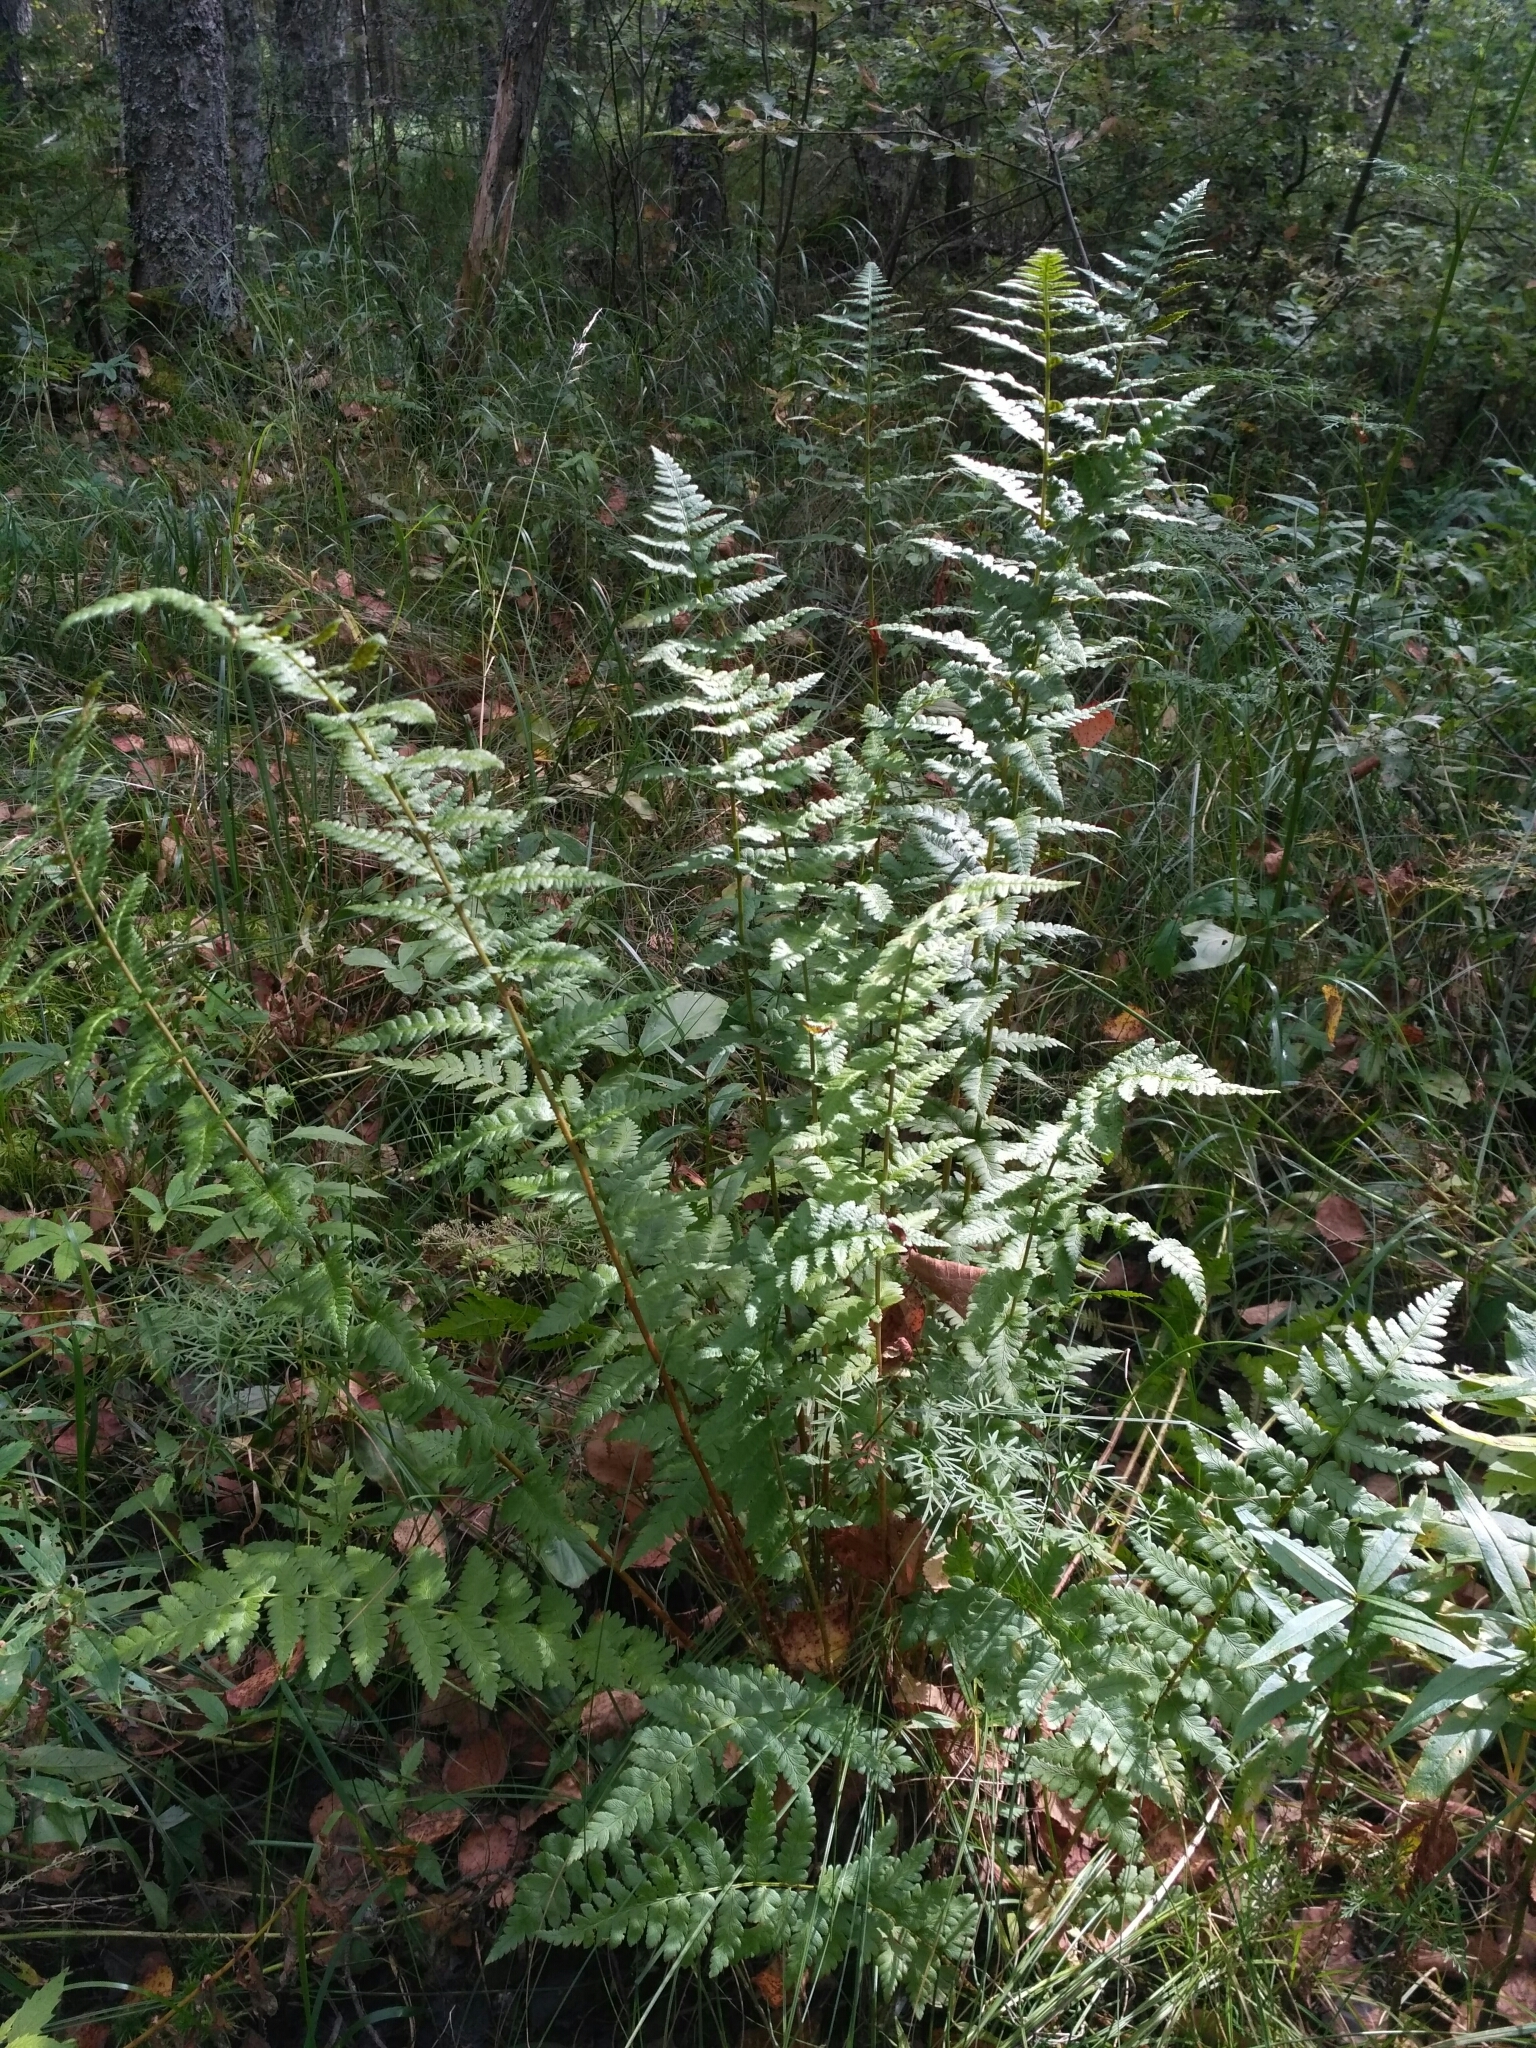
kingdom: Plantae
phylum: Tracheophyta
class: Polypodiopsida
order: Polypodiales
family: Dryopteridaceae
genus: Dryopteris
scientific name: Dryopteris cristata
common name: Crested wood fern
